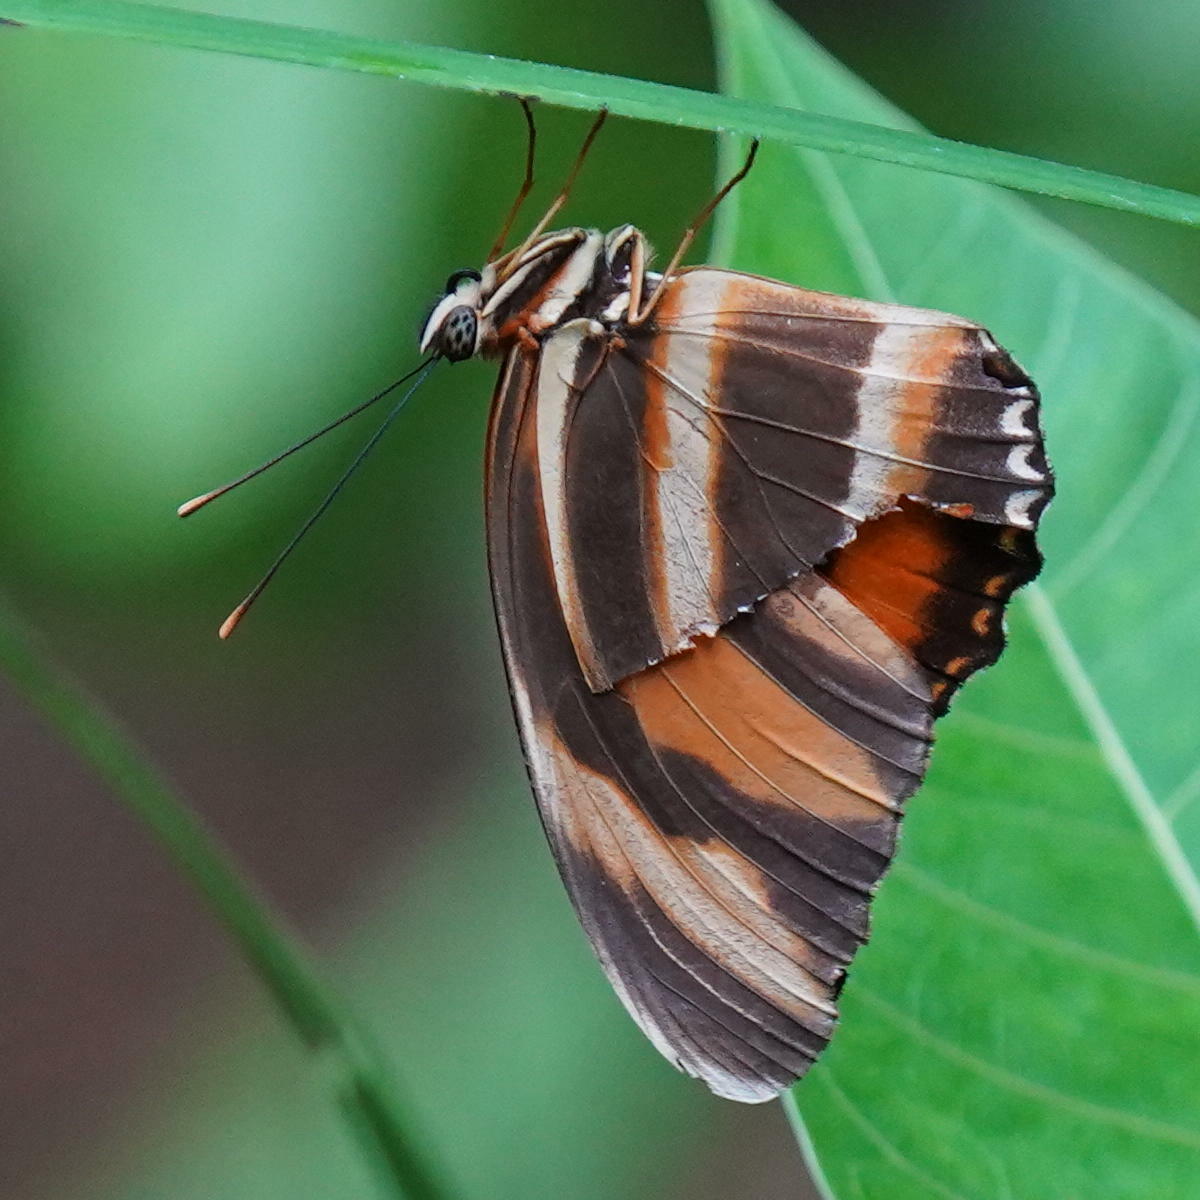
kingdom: Animalia
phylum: Arthropoda
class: Insecta
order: Lepidoptera
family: Nymphalidae
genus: Dryadula
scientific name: Dryadula phaetusa
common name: Banded orange heliconian
